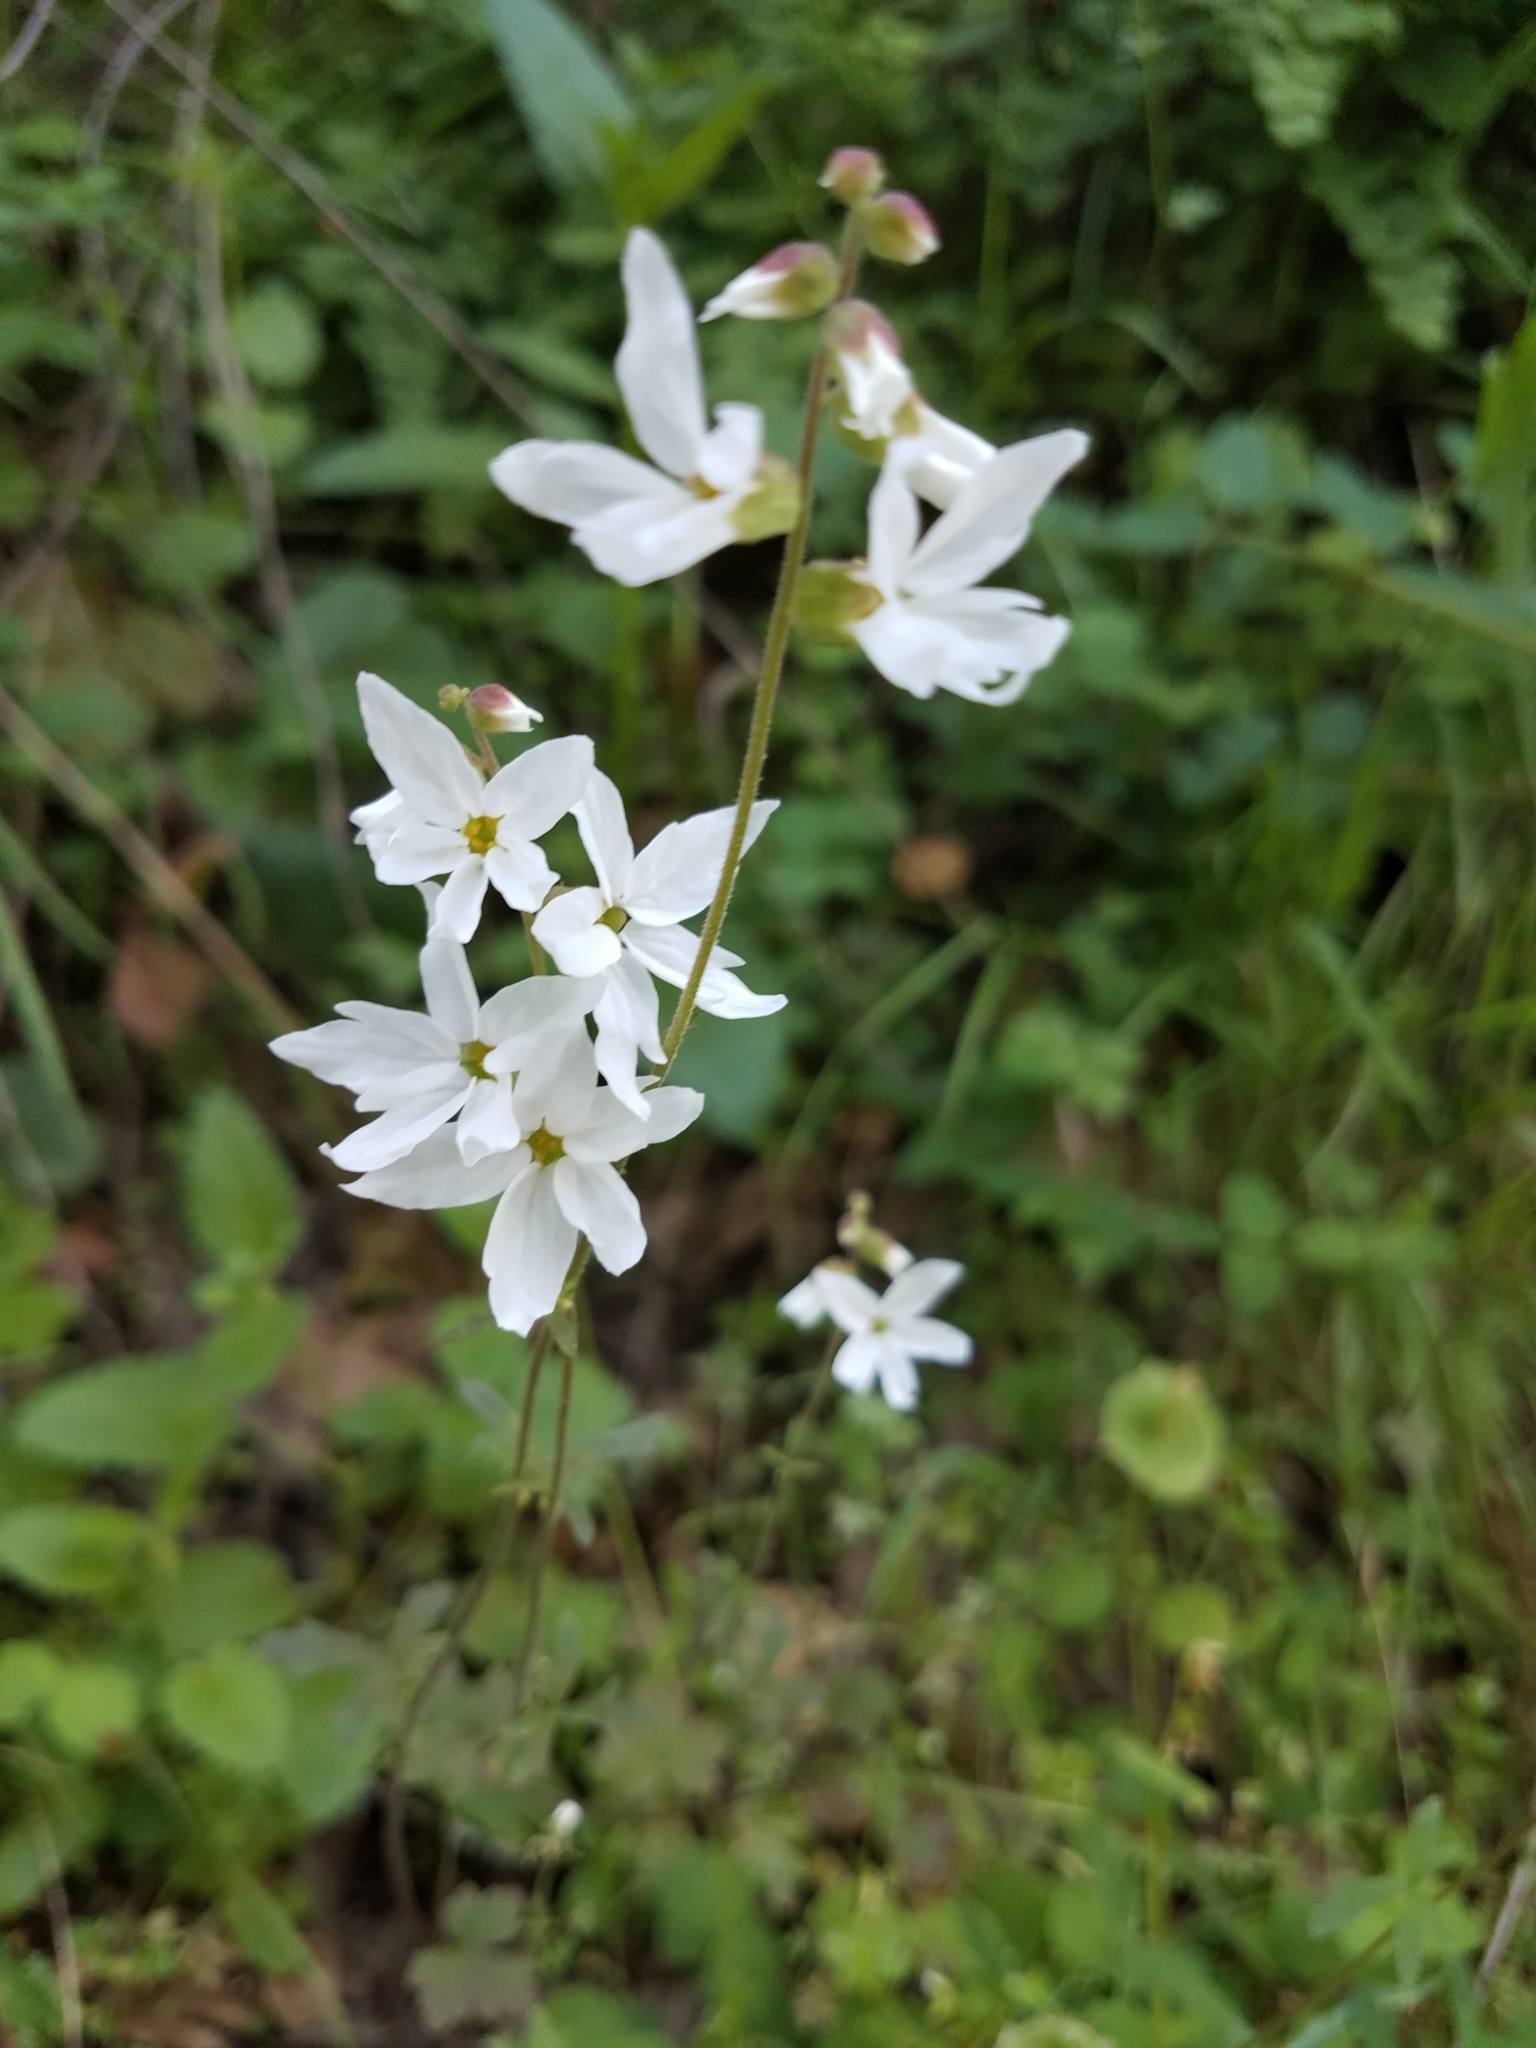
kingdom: Plantae
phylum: Tracheophyta
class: Magnoliopsida
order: Saxifragales
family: Saxifragaceae
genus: Lithophragma
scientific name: Lithophragma heterophyllum
